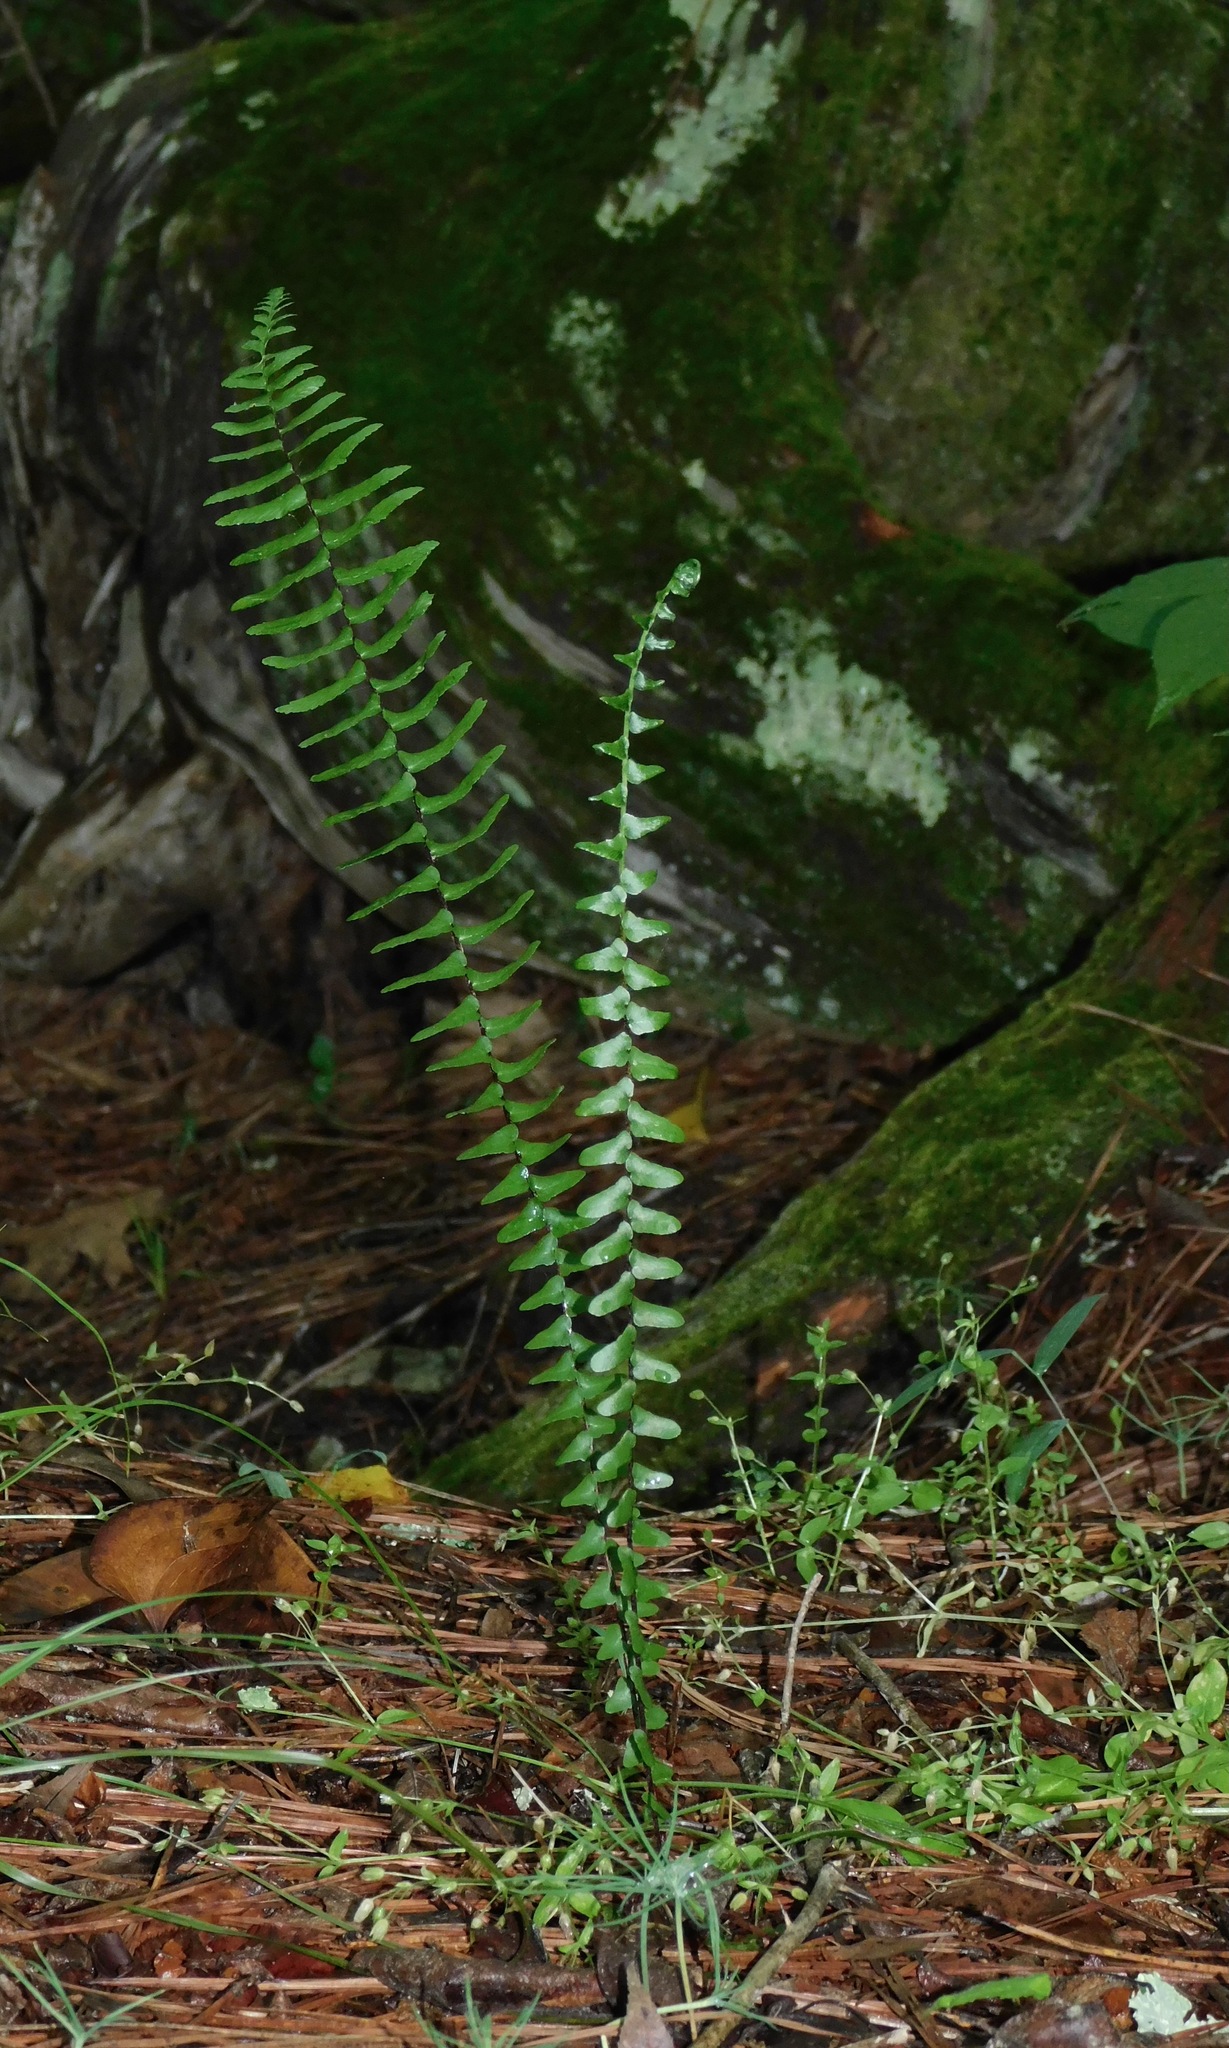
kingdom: Plantae
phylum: Tracheophyta
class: Polypodiopsida
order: Polypodiales
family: Aspleniaceae
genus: Asplenium
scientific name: Asplenium platyneuron
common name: Ebony spleenwort
